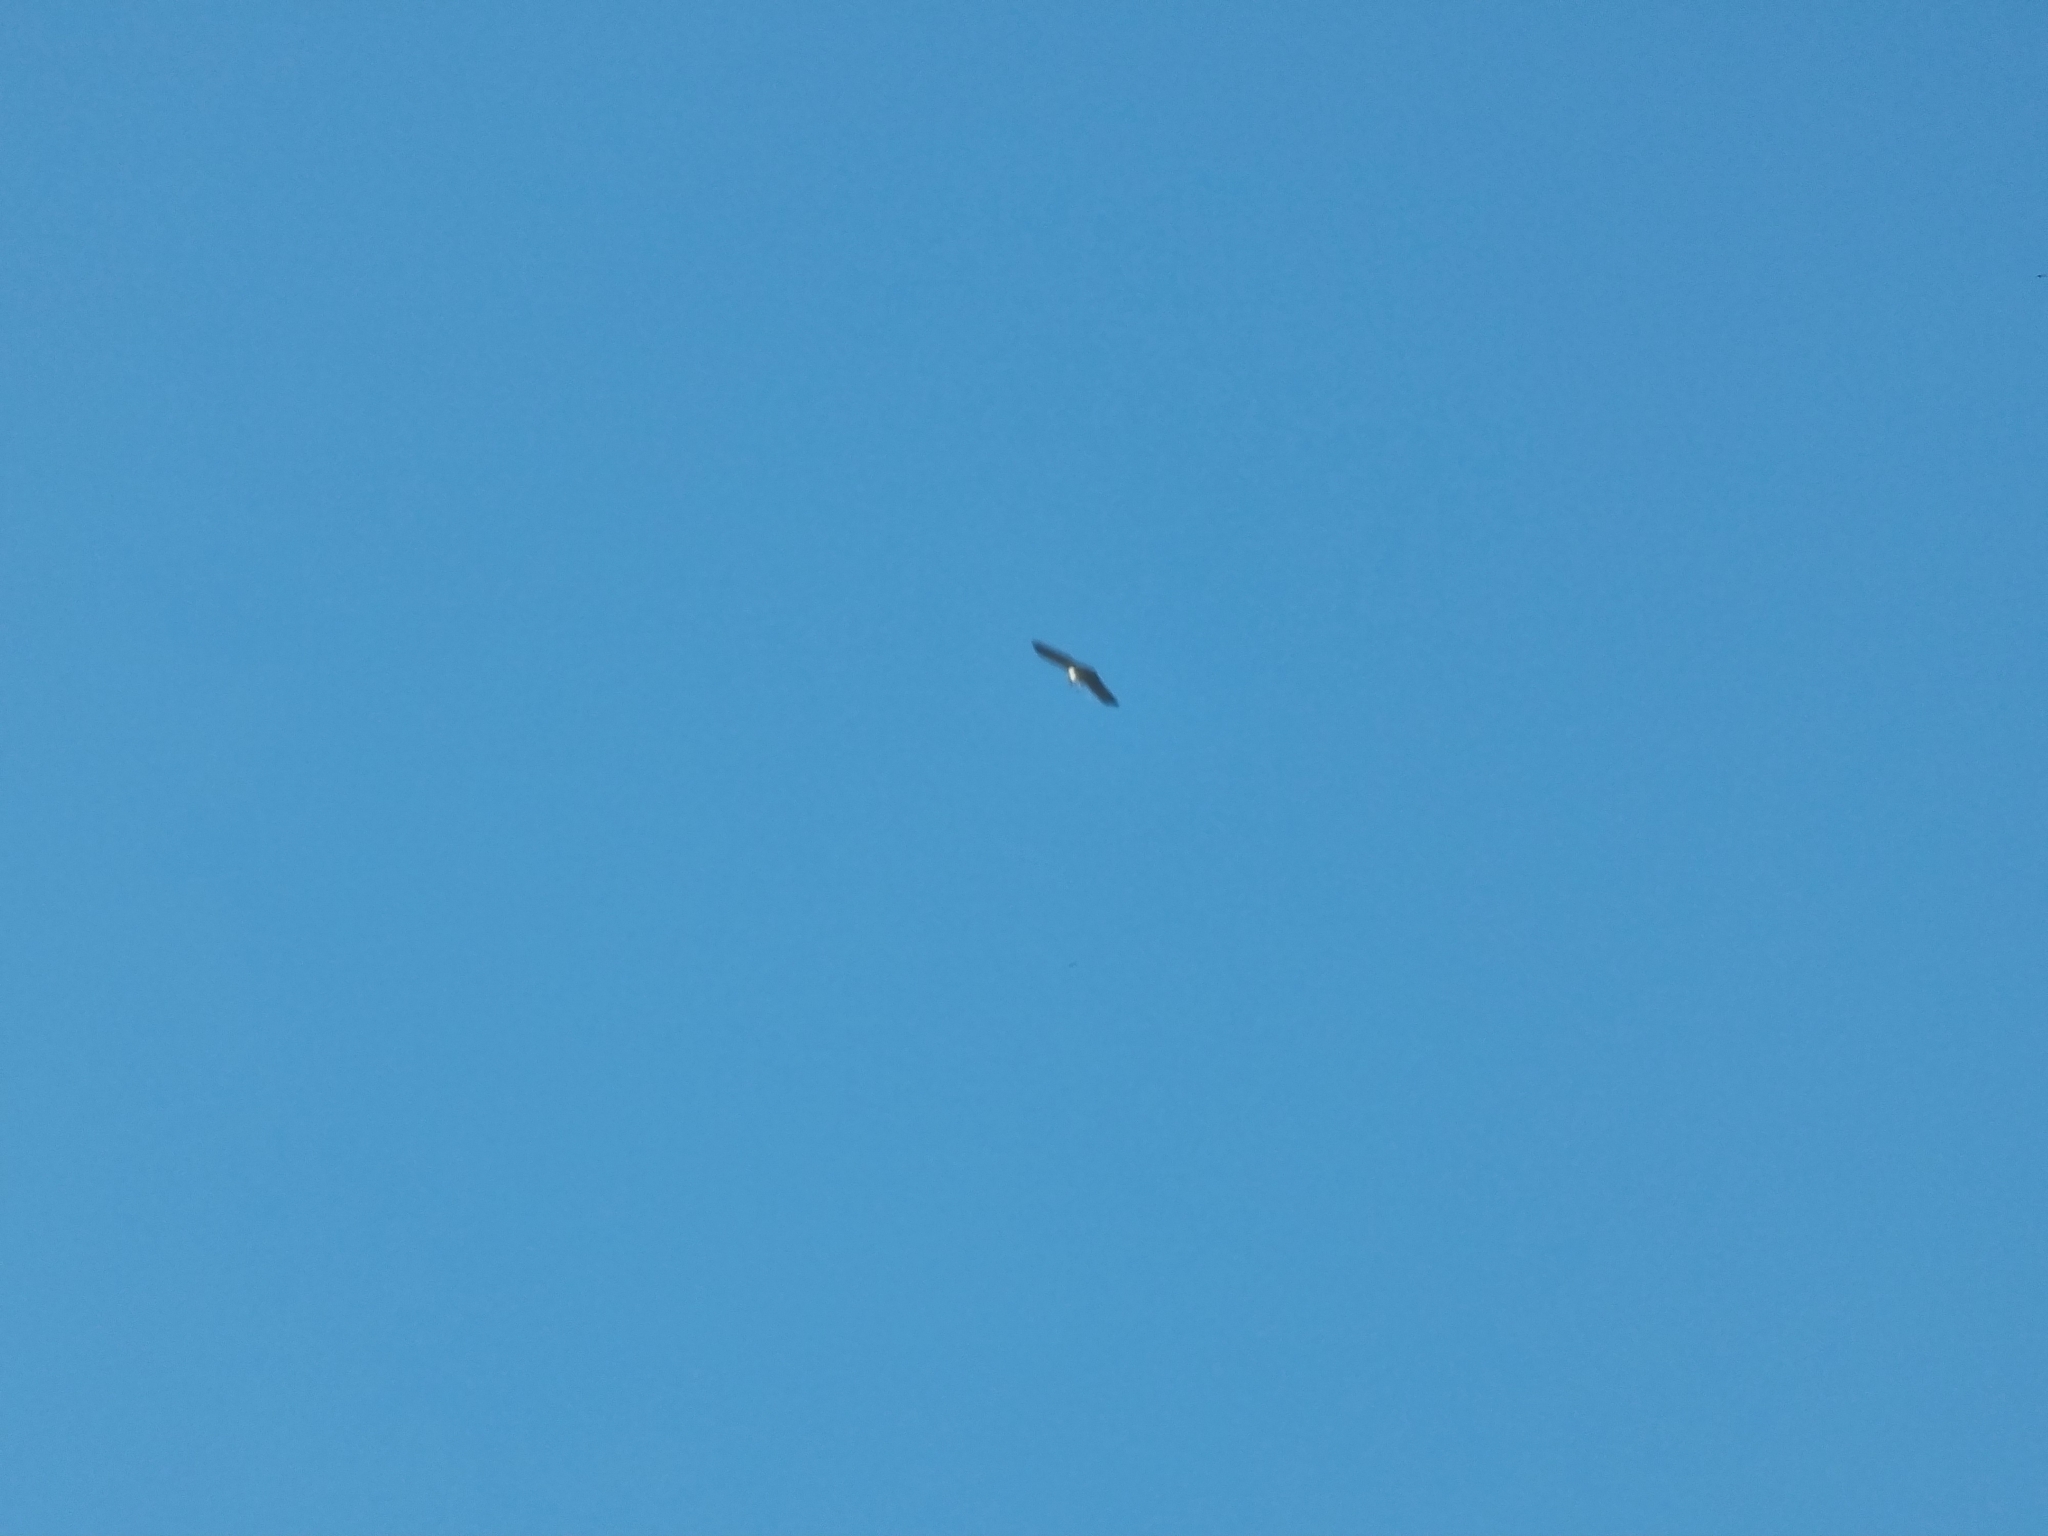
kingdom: Animalia
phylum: Chordata
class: Aves
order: Accipitriformes
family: Accipitridae
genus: Circaetus
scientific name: Circaetus gallicus
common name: Short-toed snake eagle
